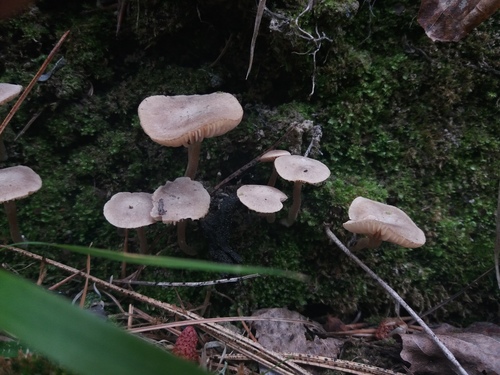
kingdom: Fungi
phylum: Basidiomycota
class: Agaricomycetes
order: Agaricales
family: Callistosporiaceae
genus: Pseudolaccaria
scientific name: Pseudolaccaria pachyphylla
